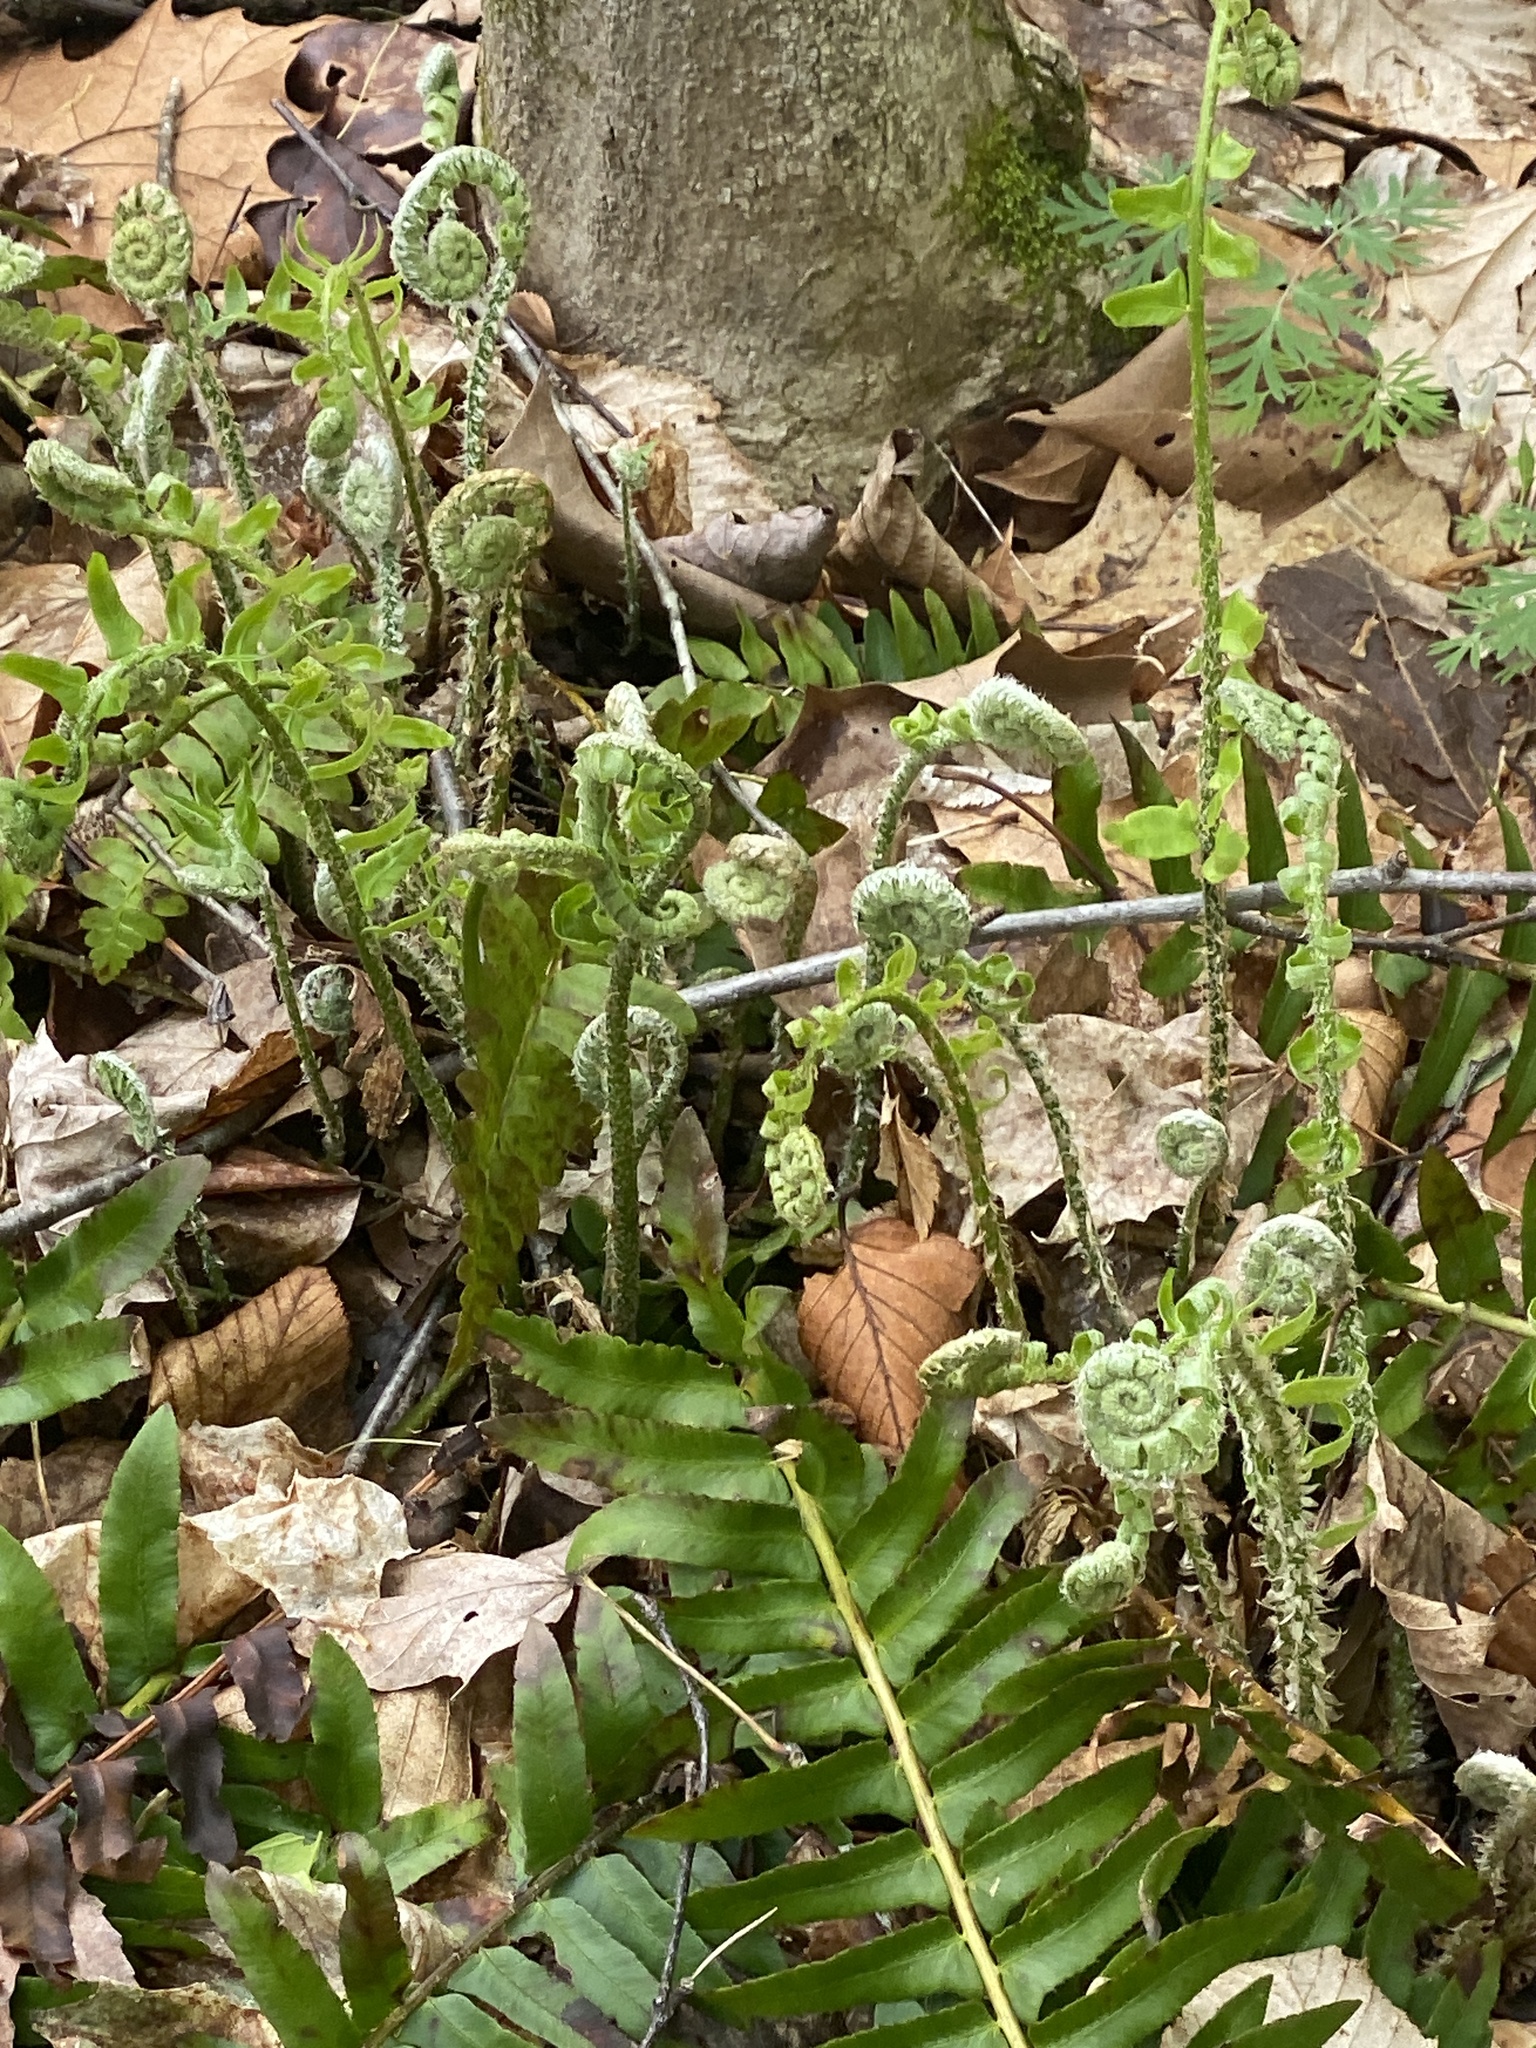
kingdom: Plantae
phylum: Tracheophyta
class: Polypodiopsida
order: Polypodiales
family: Dryopteridaceae
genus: Polystichum
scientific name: Polystichum acrostichoides
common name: Christmas fern
